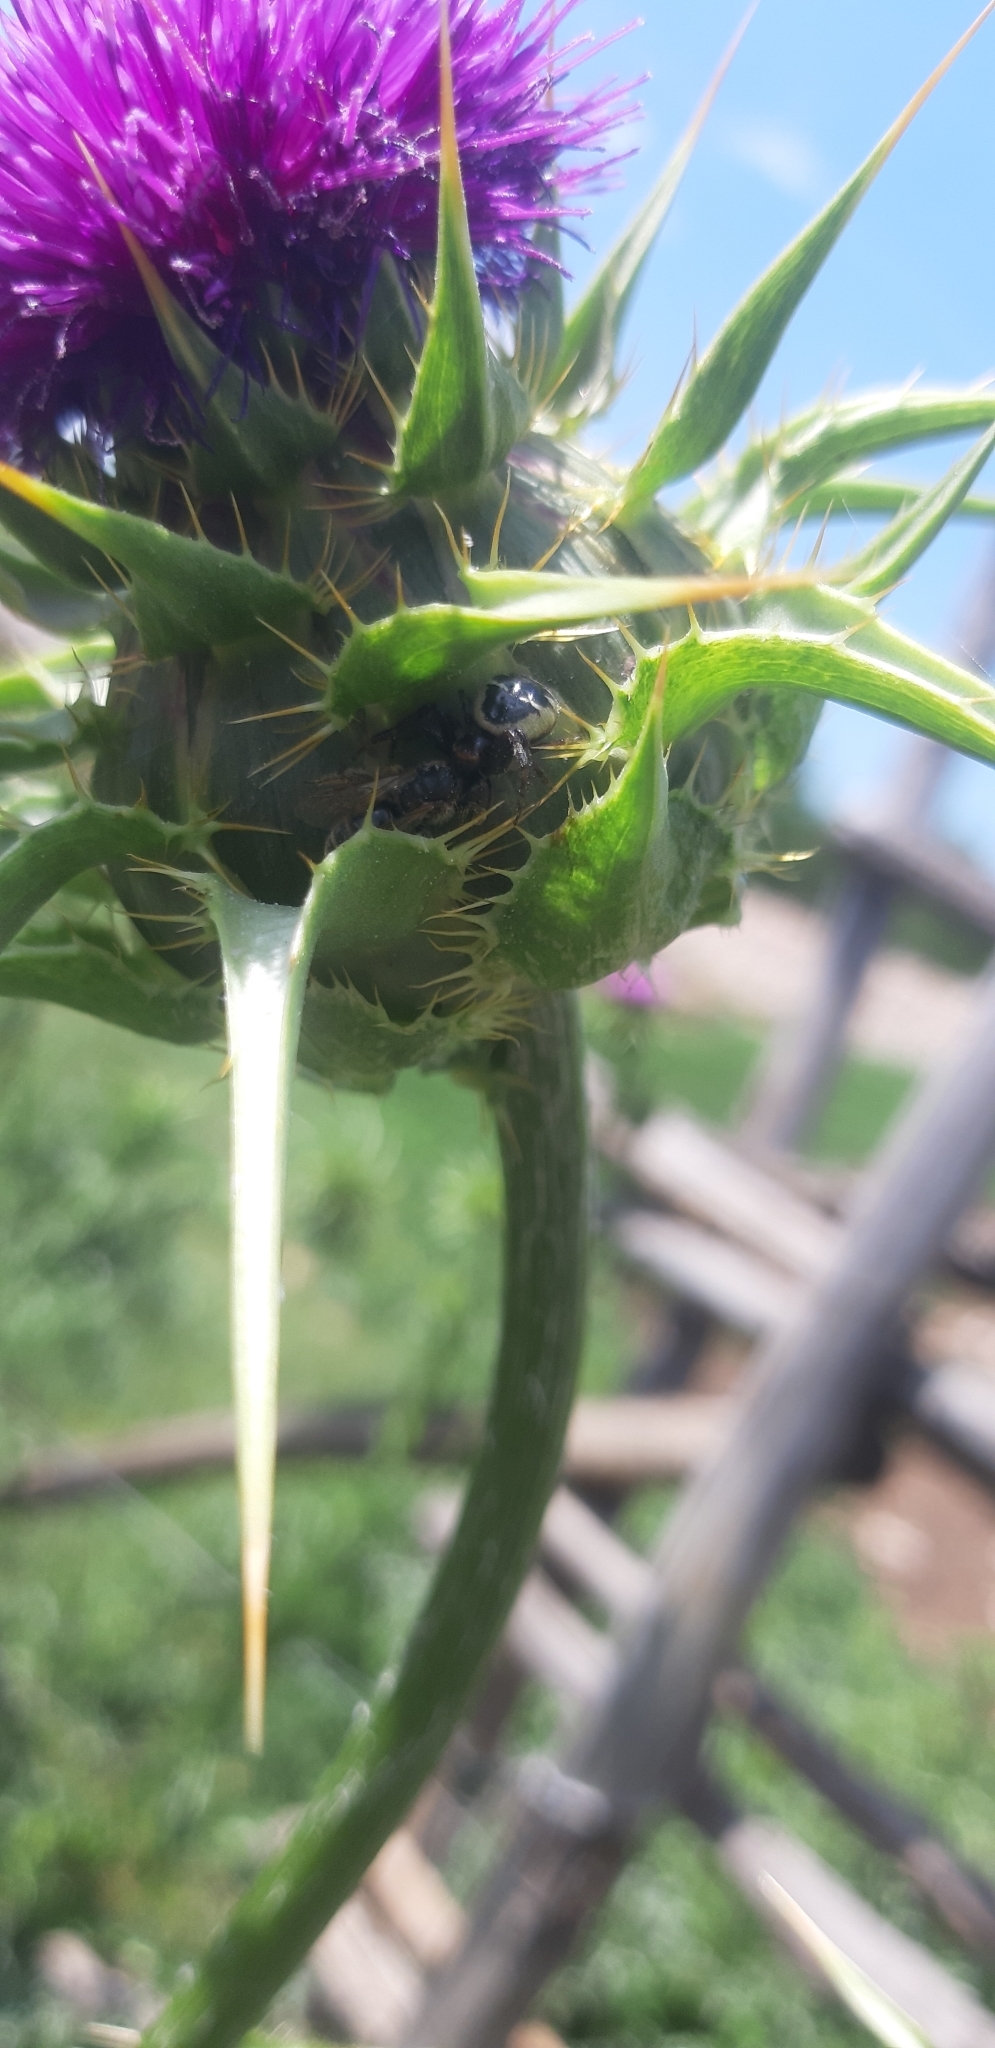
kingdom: Animalia
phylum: Arthropoda
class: Arachnida
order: Araneae
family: Thomisidae
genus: Synema
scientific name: Synema globosum
